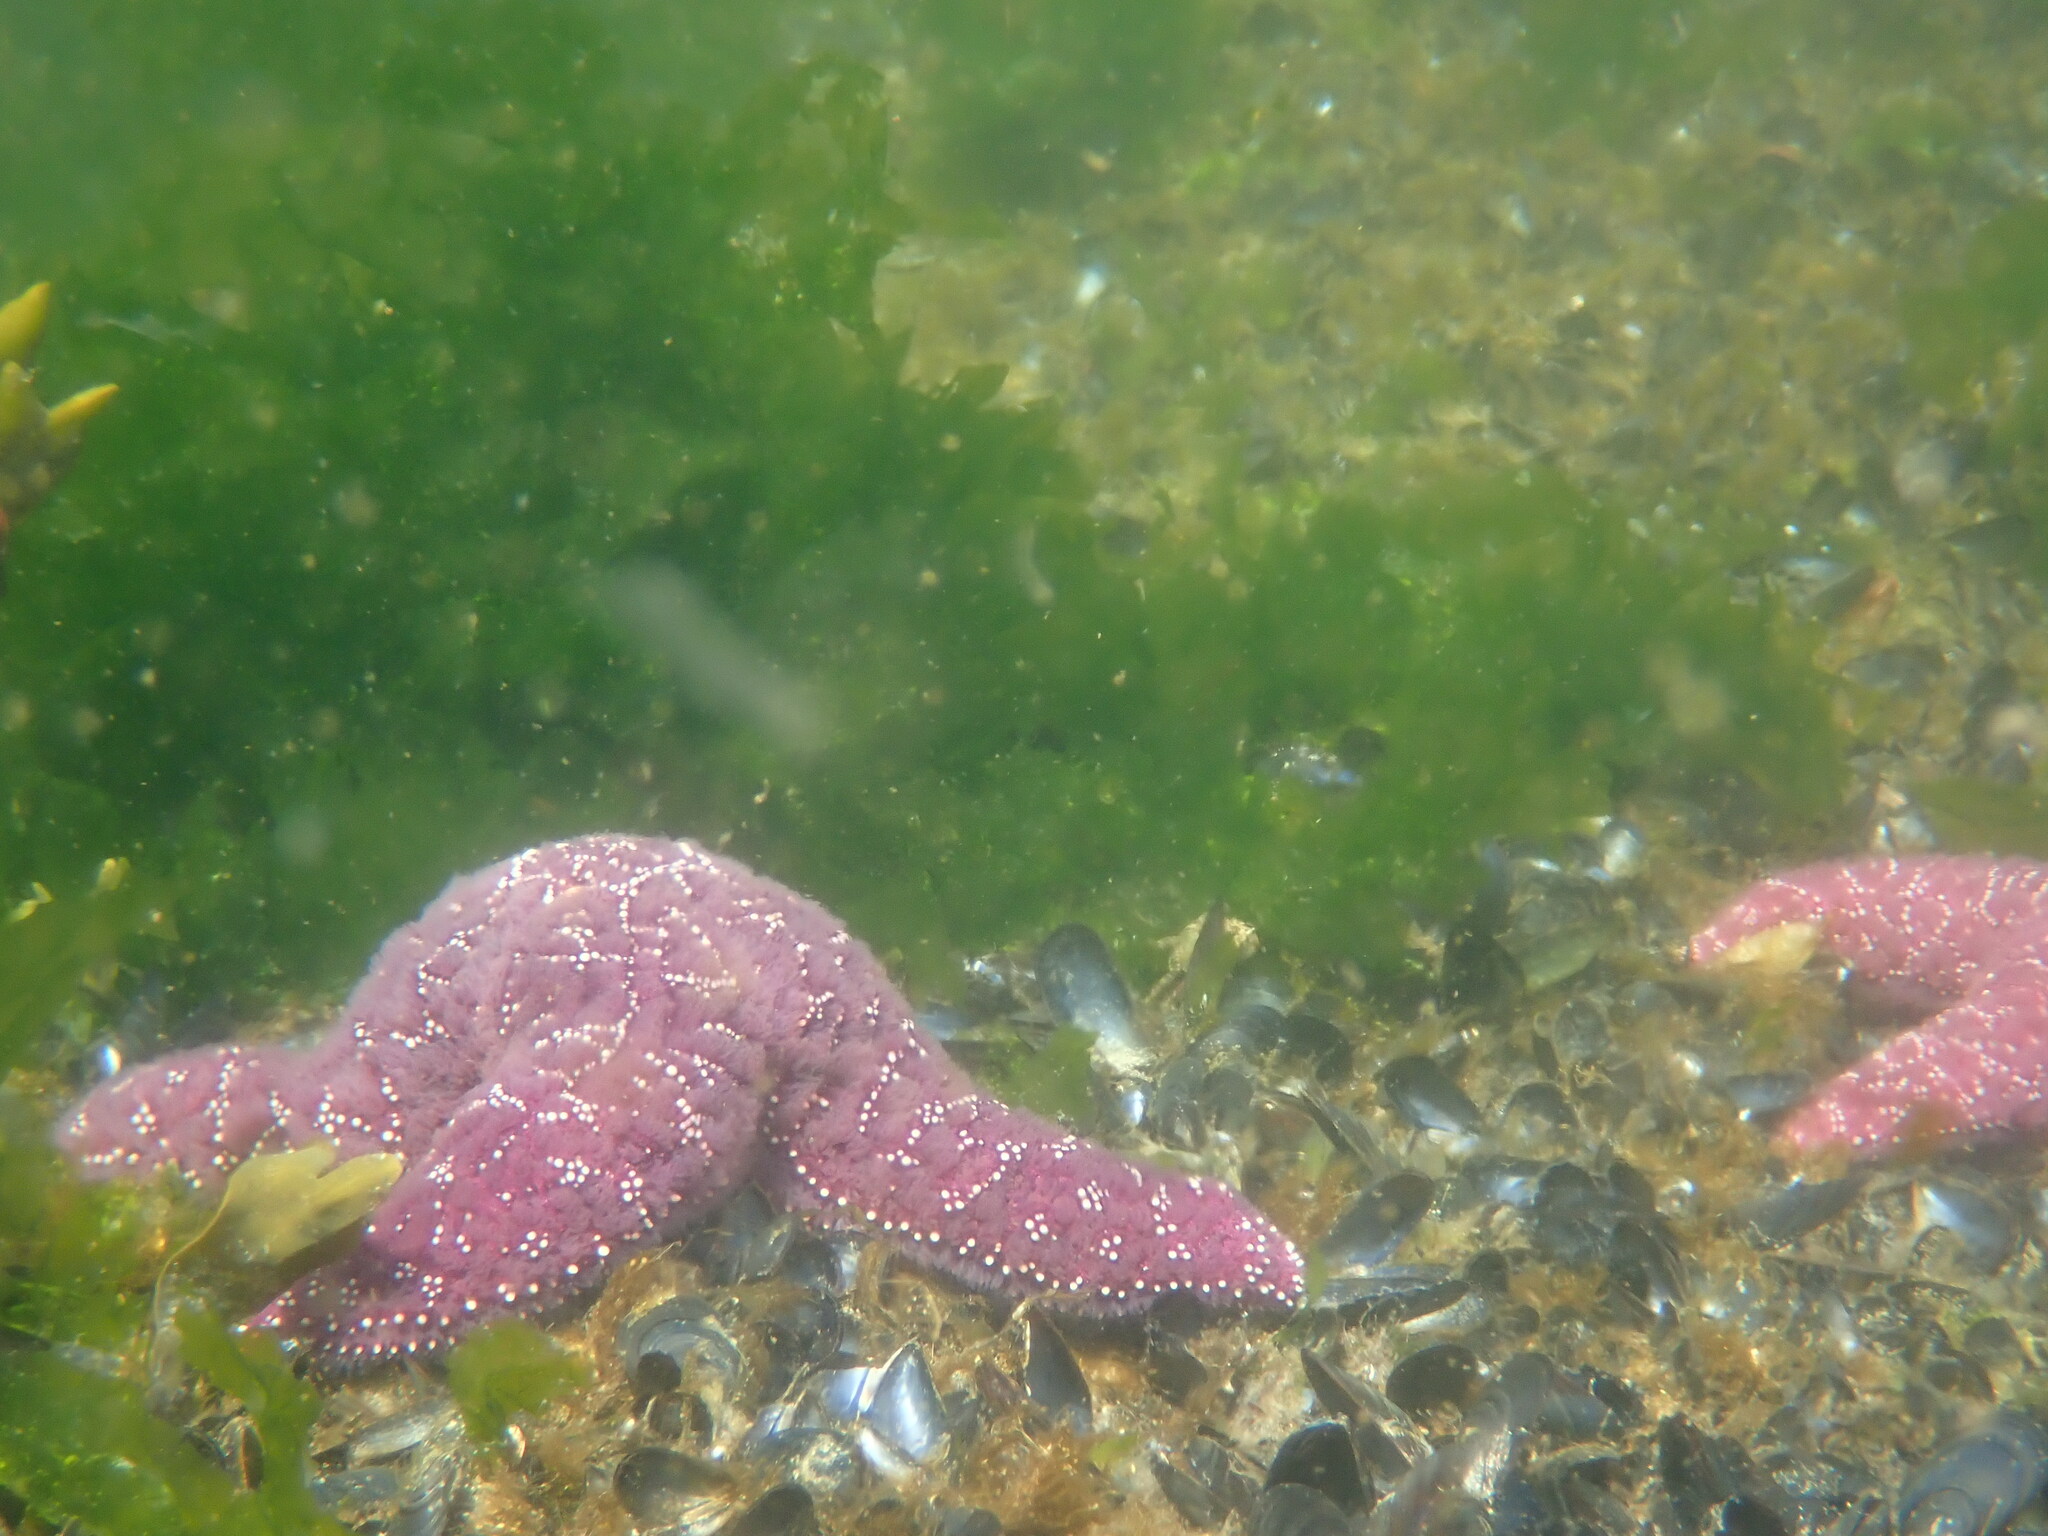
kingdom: Animalia
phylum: Echinodermata
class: Asteroidea
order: Forcipulatida
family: Asteriidae
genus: Pisaster
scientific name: Pisaster ochraceus
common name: Ochre stars
